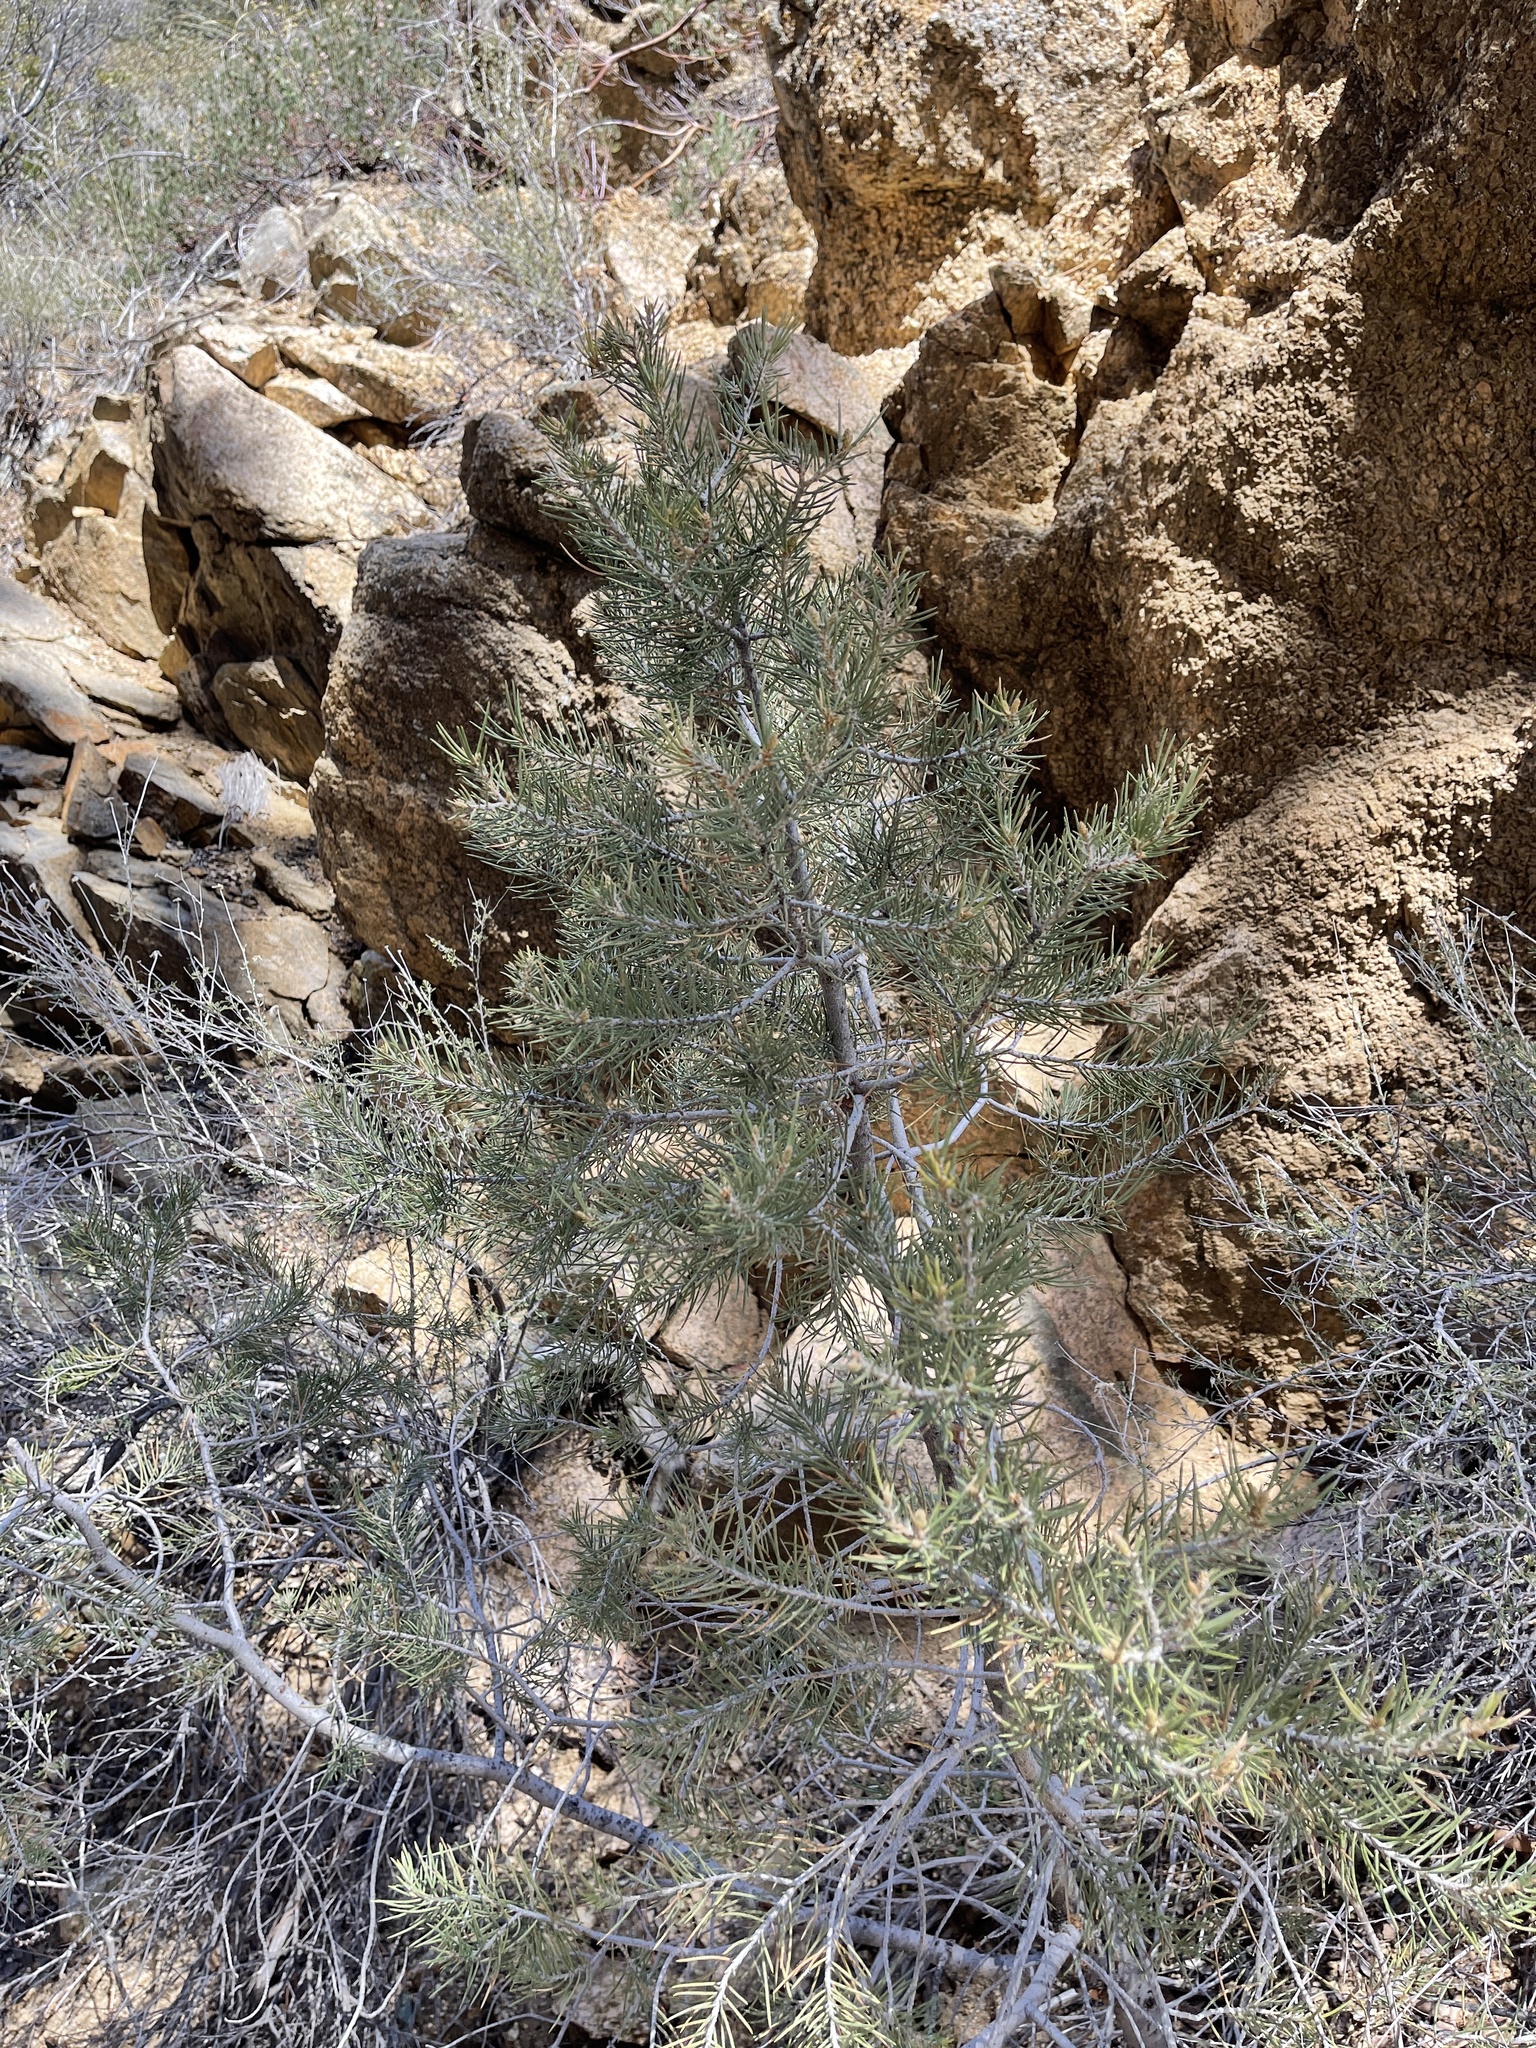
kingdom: Plantae
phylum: Tracheophyta
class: Pinopsida
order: Pinales
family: Pinaceae
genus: Pinus
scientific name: Pinus monophylla
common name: One-leaved nut pine
